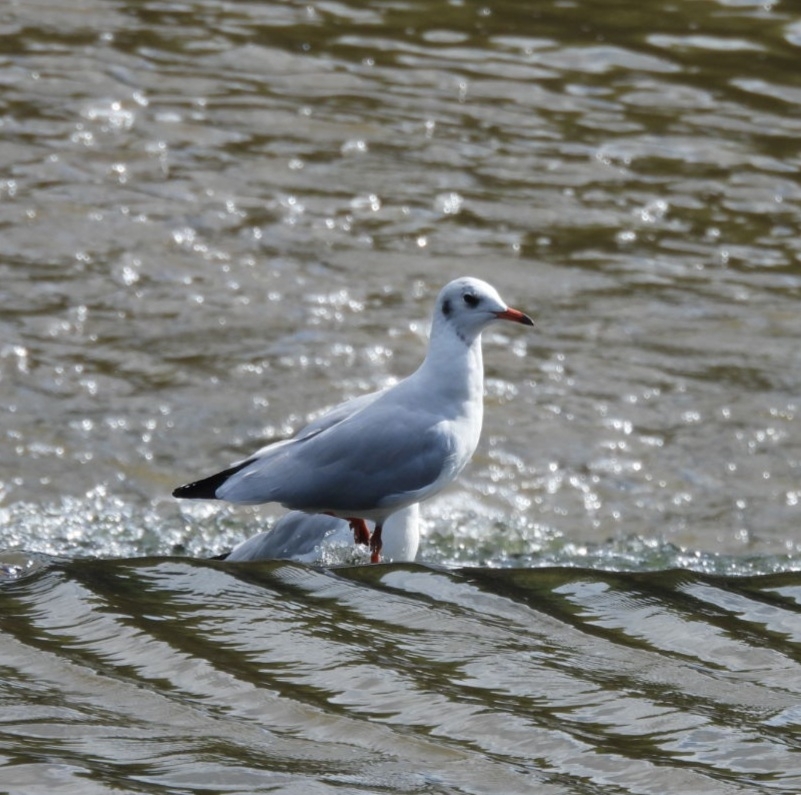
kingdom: Animalia
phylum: Chordata
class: Aves
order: Charadriiformes
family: Laridae
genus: Chroicocephalus
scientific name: Chroicocephalus ridibundus
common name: Black-headed gull
